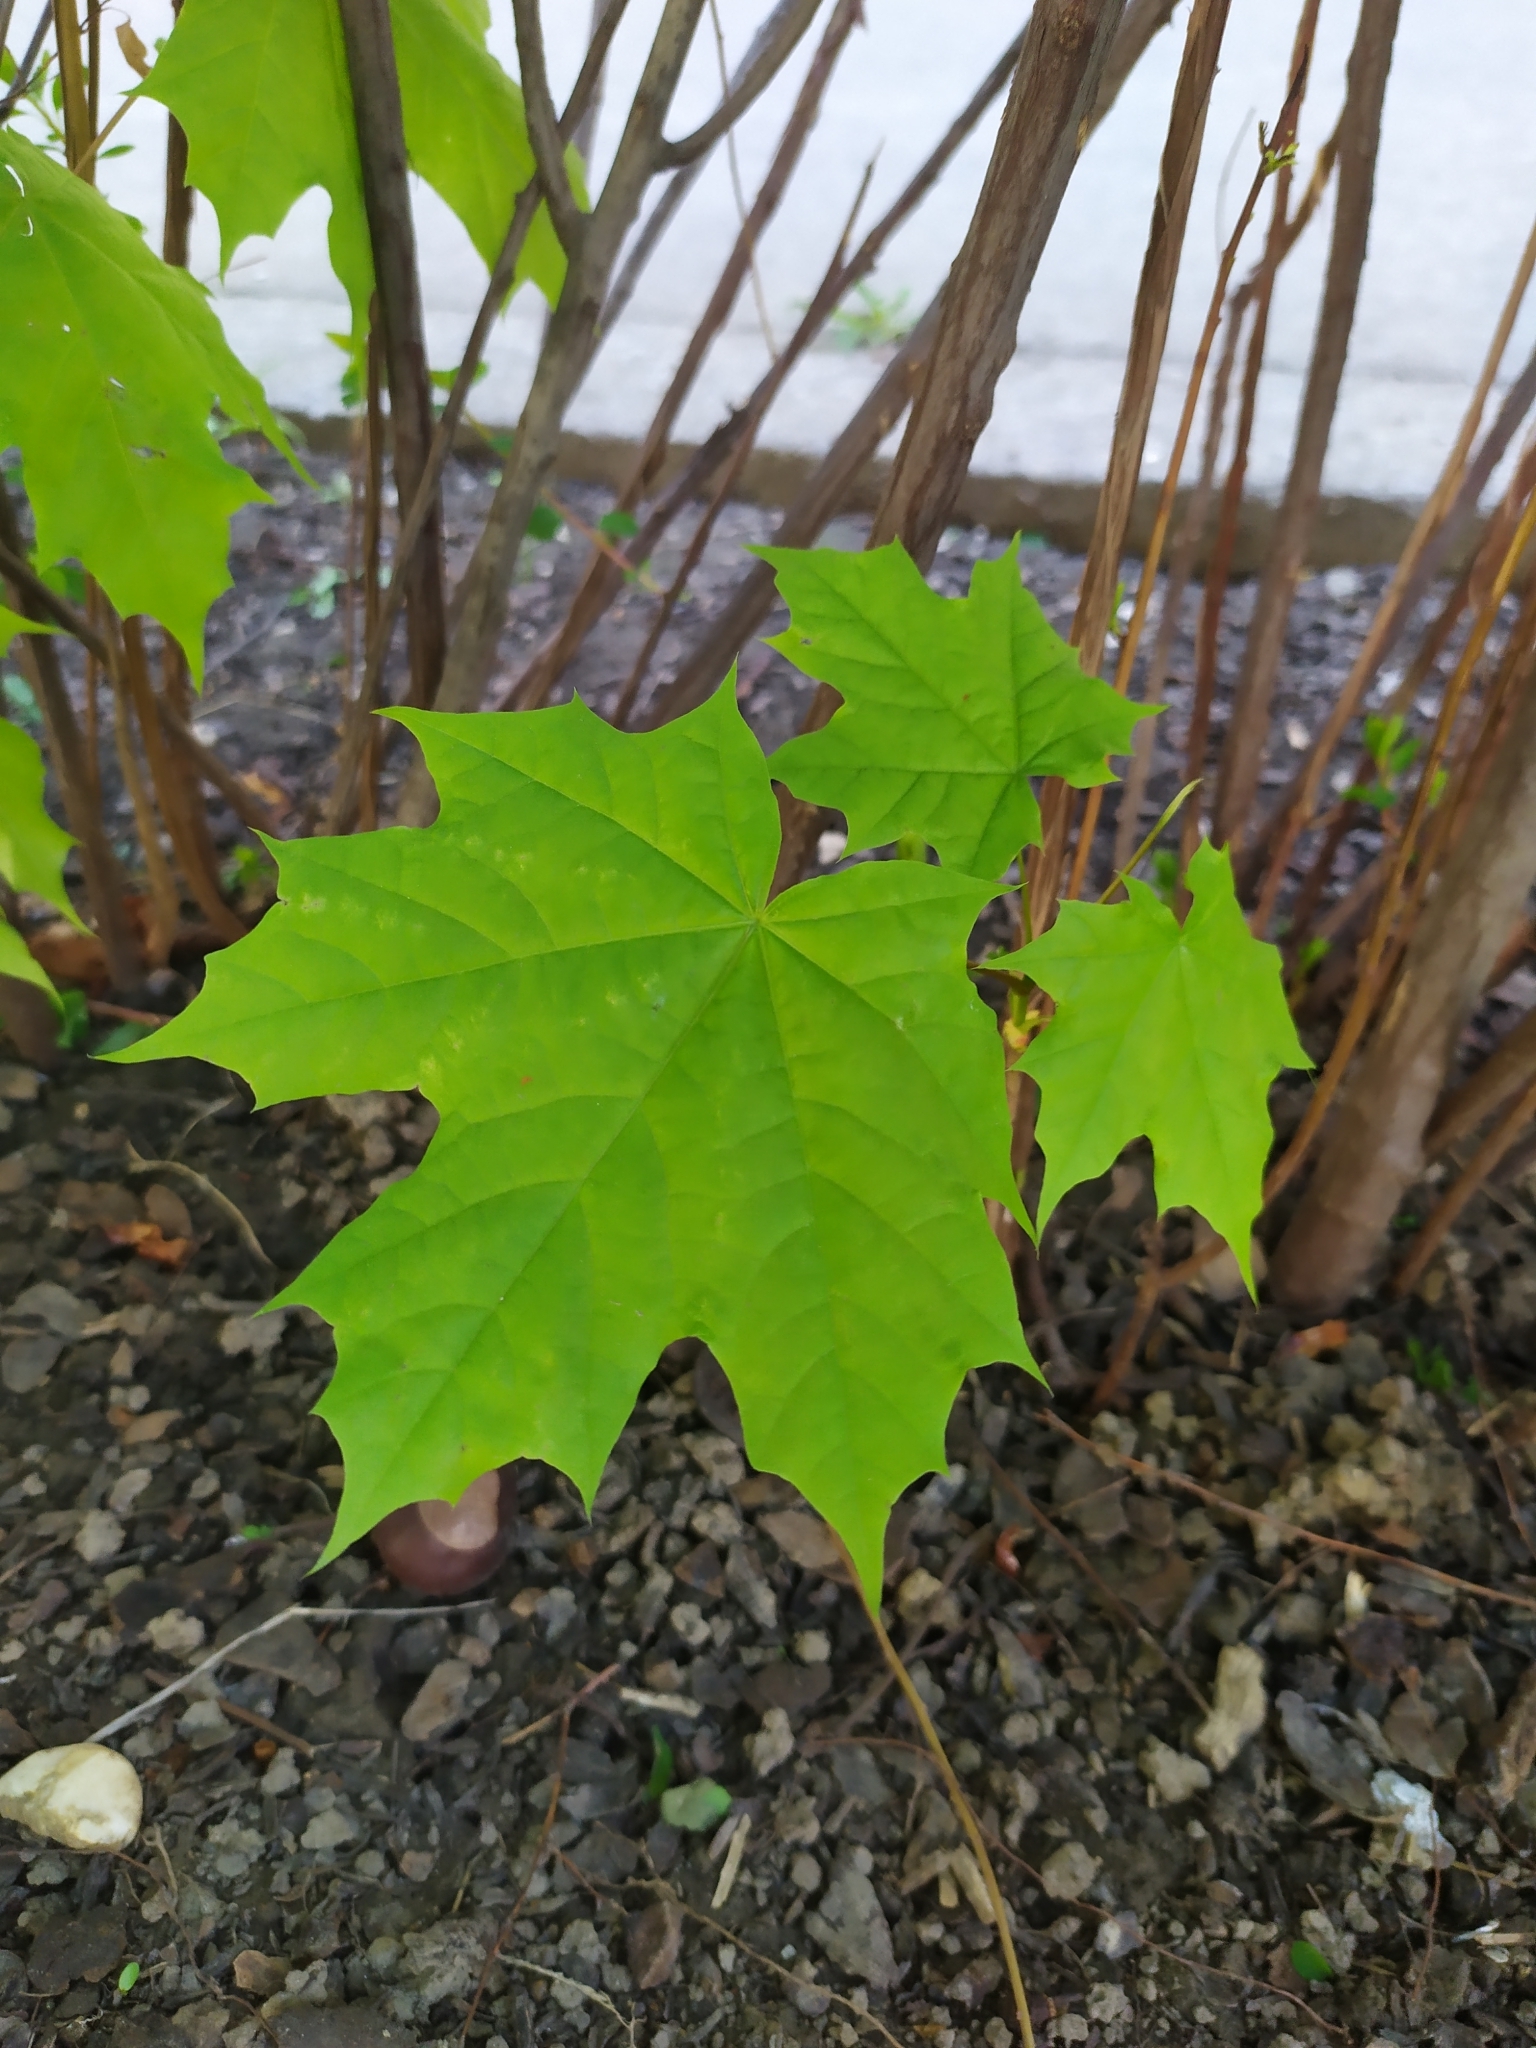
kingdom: Plantae
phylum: Tracheophyta
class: Magnoliopsida
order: Sapindales
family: Sapindaceae
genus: Acer
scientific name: Acer platanoides
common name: Norway maple
